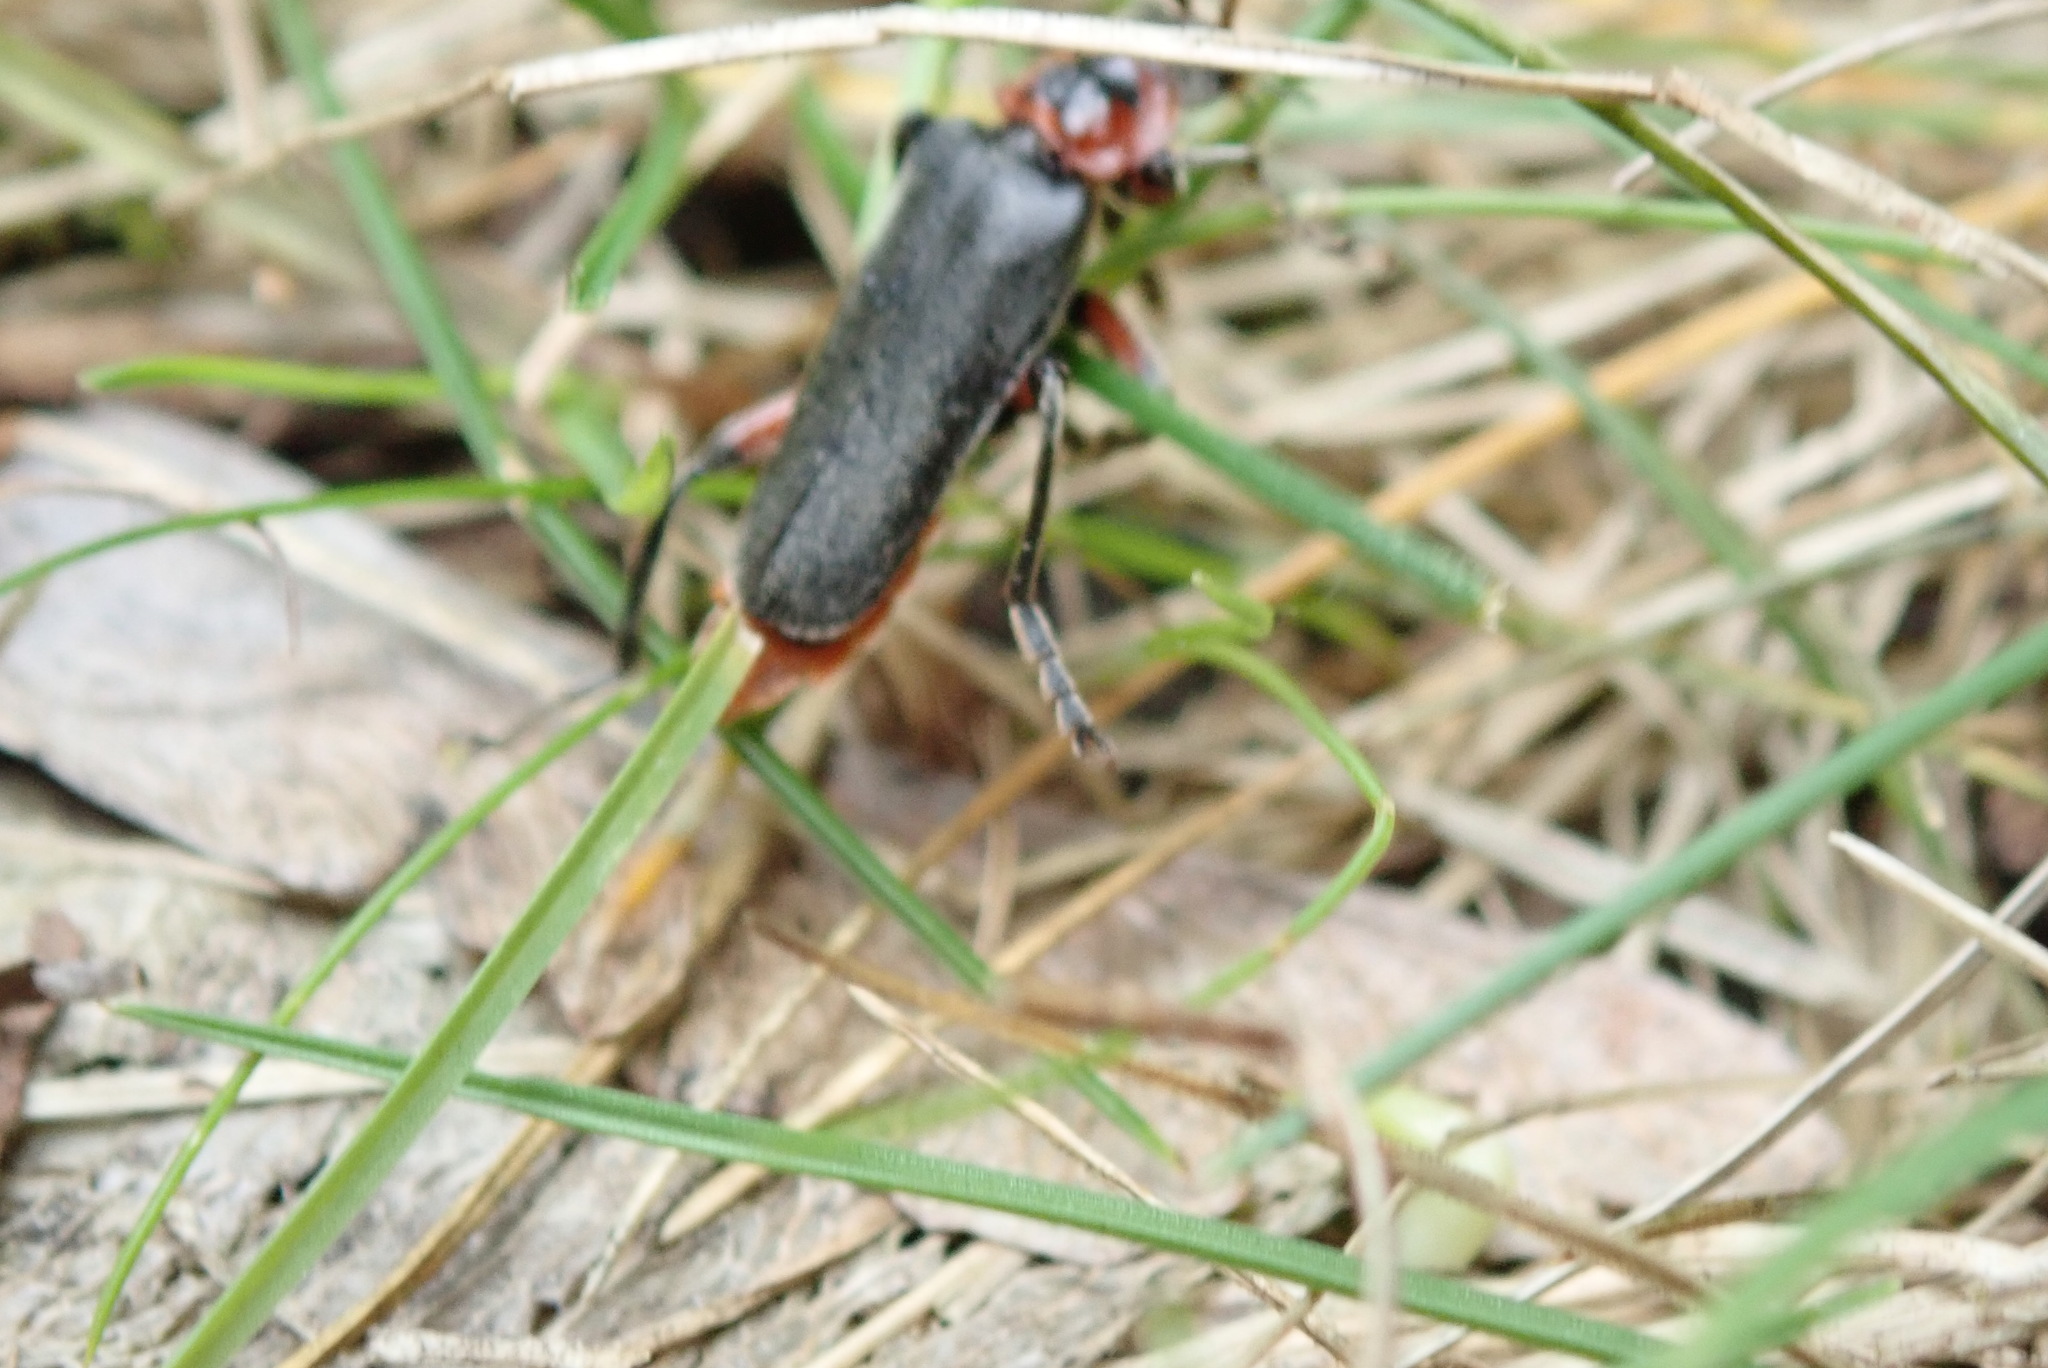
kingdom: Animalia
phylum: Arthropoda
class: Insecta
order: Coleoptera
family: Cantharidae
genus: Cantharis
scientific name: Cantharis rustica
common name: Soldier beetle
